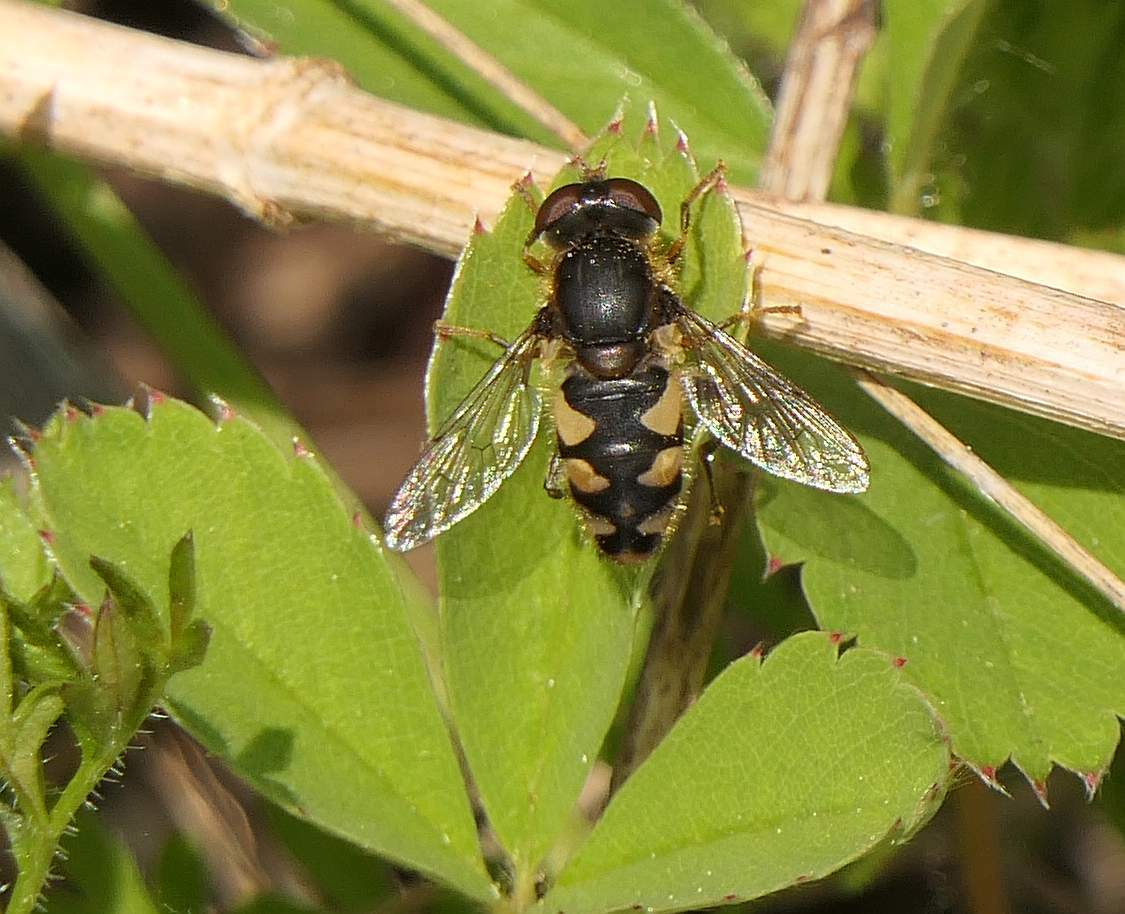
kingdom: Animalia
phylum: Arthropoda
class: Insecta
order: Diptera
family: Syrphidae
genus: Parhelophilus
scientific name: Parhelophilus rex
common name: Dusky bog fly
